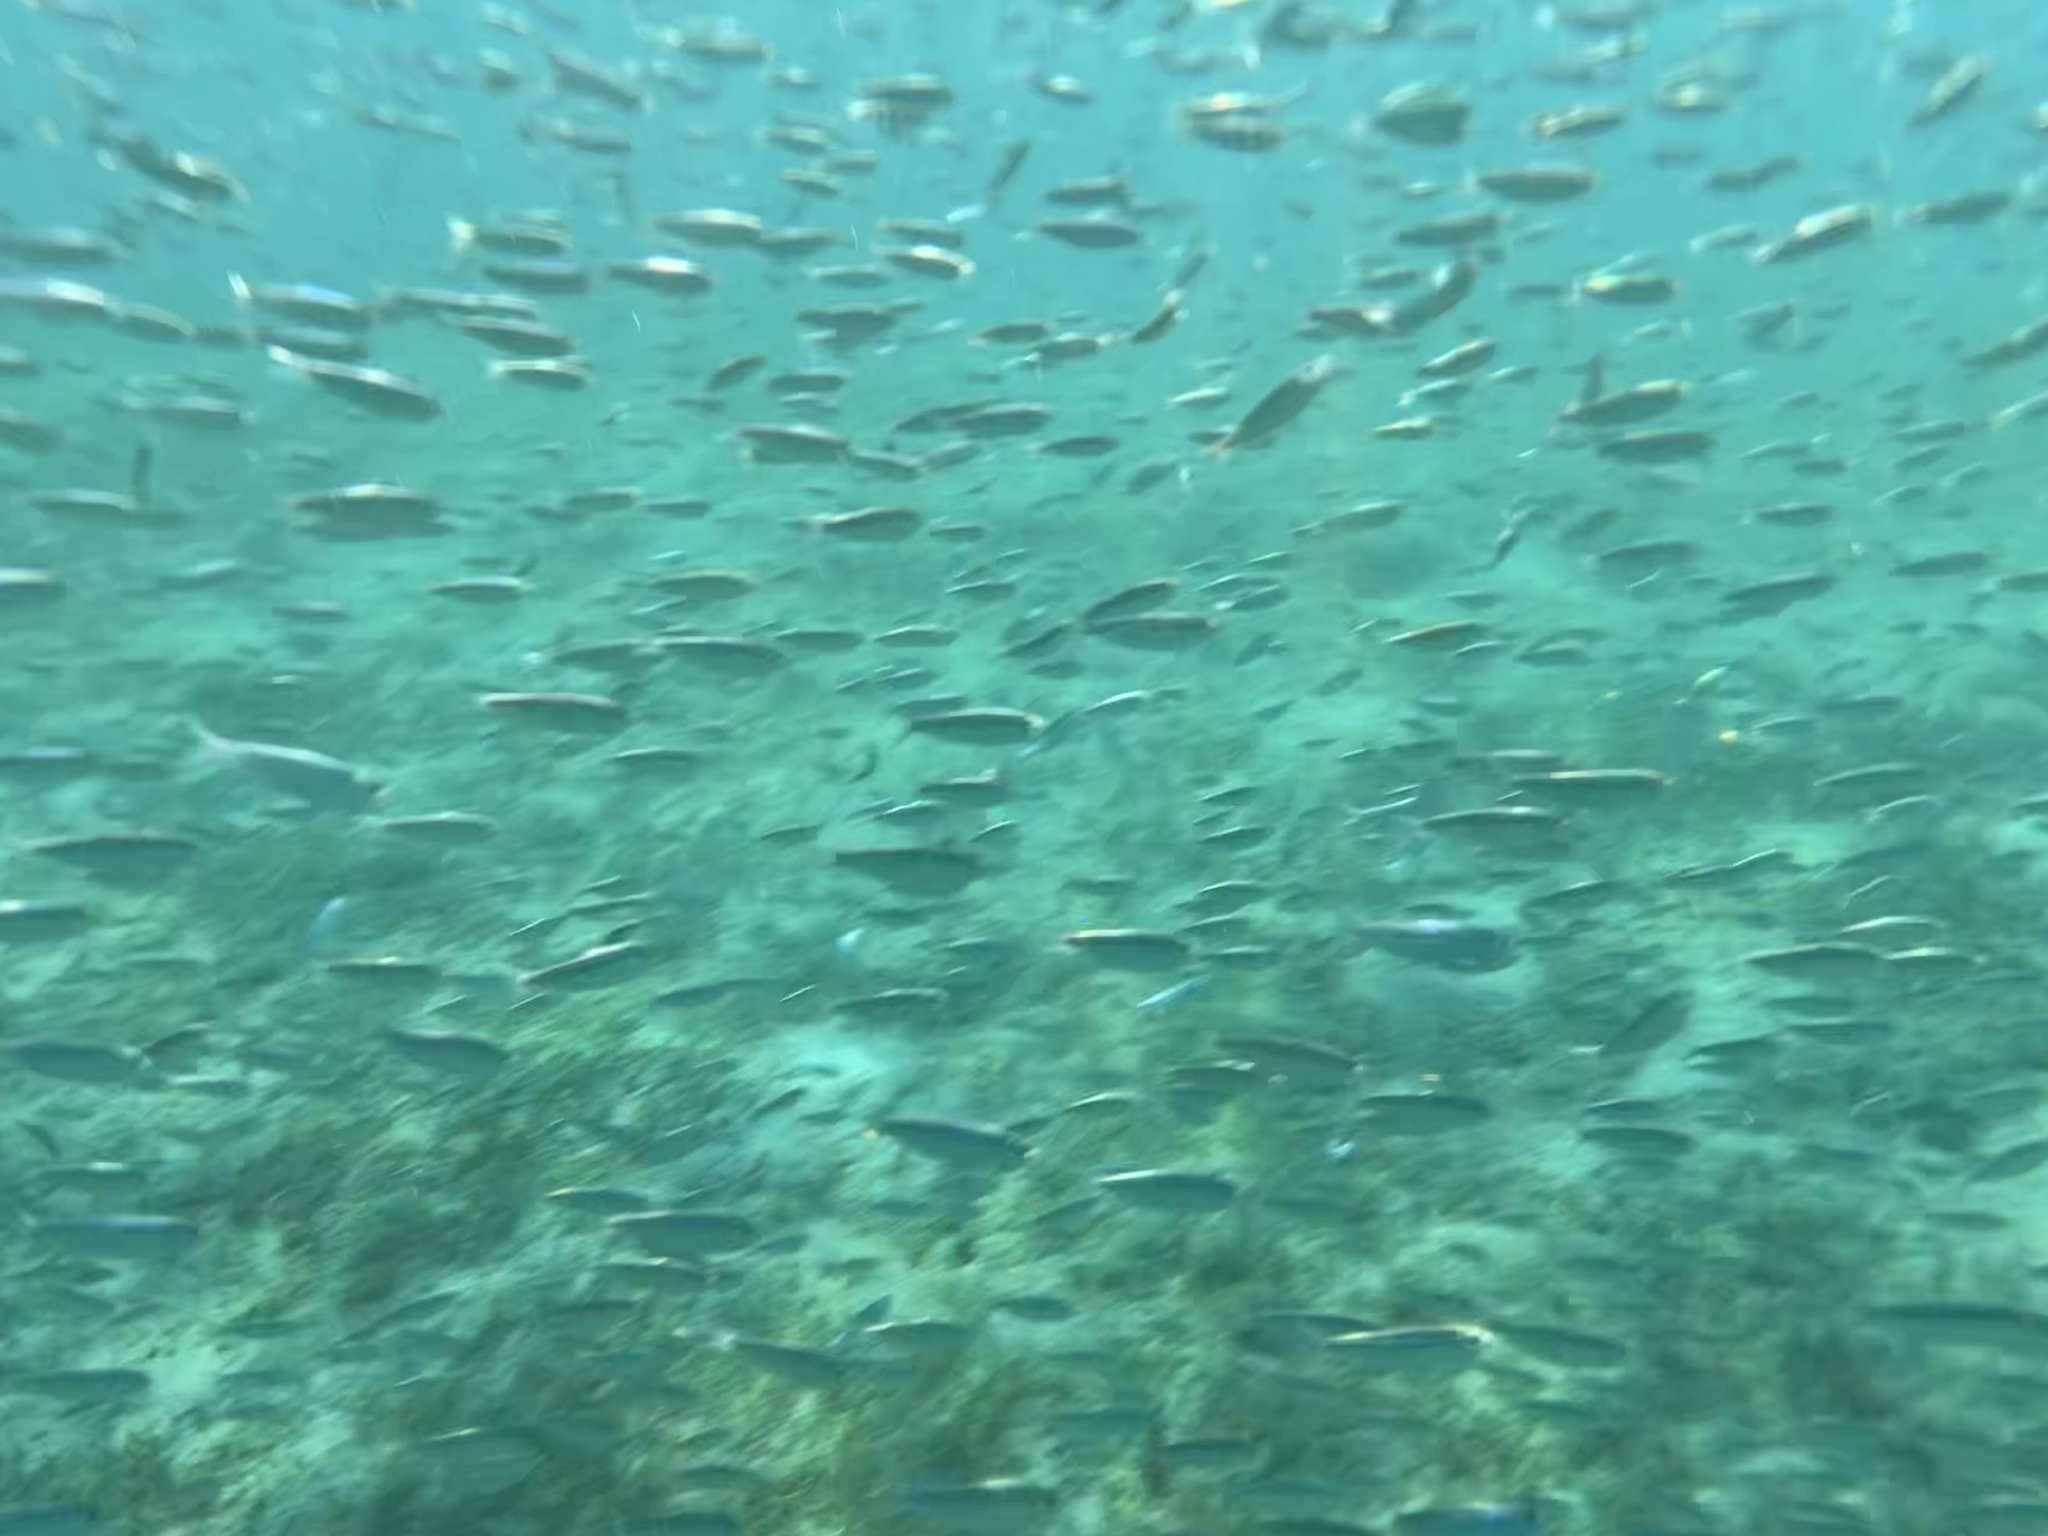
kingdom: Animalia
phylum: Chordata
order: Clupeiformes
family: Clupeidae
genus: Harengula
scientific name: Harengula jaguana
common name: Scaled sardine
